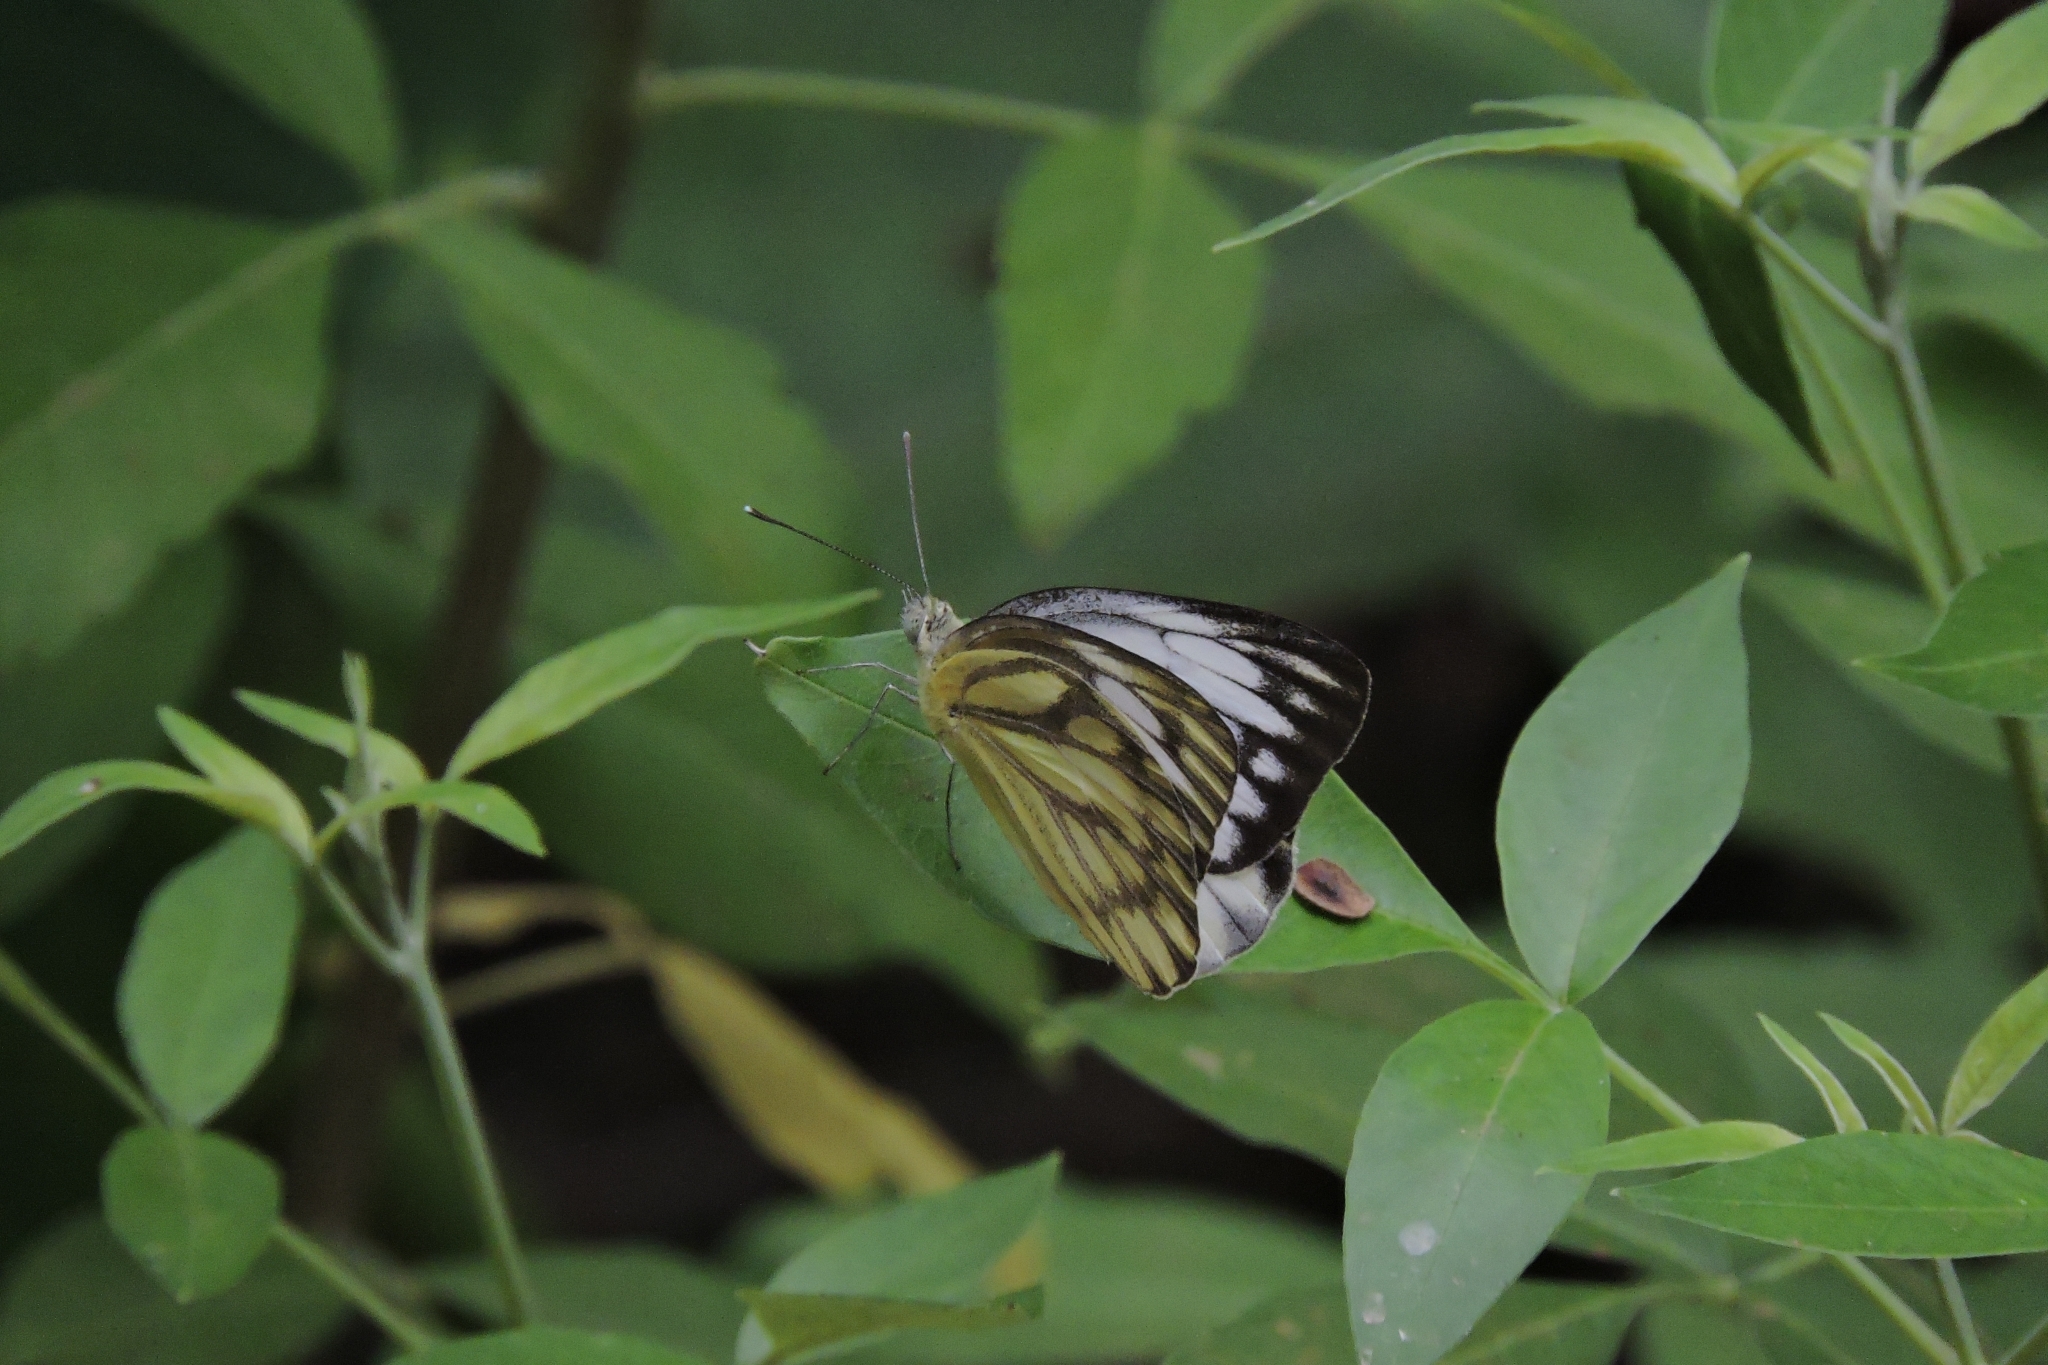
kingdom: Animalia
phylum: Arthropoda
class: Insecta
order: Lepidoptera
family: Pieridae
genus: Cepora
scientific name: Cepora nerissa
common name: Common gull
